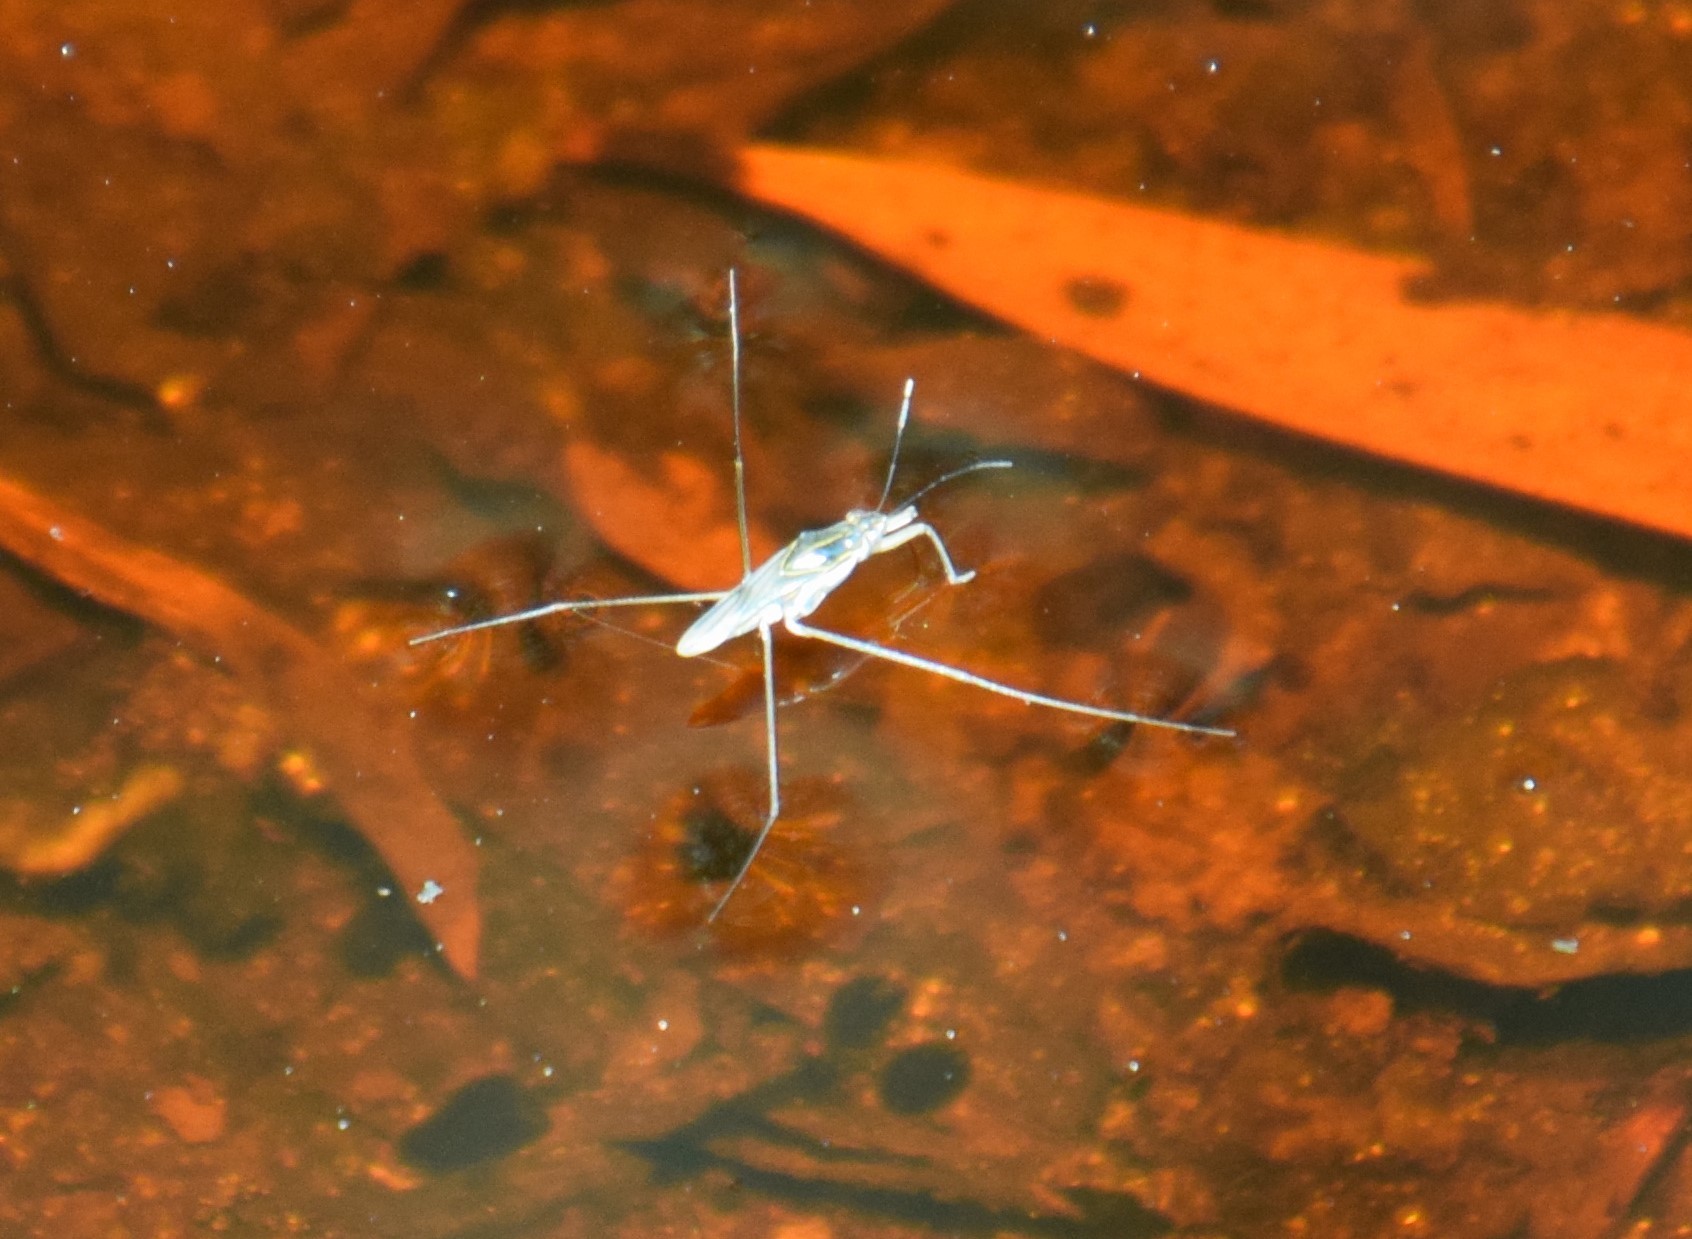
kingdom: Animalia
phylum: Arthropoda
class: Insecta
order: Hemiptera
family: Gerridae
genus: Limnogonus
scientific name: Limnogonus fossarum
